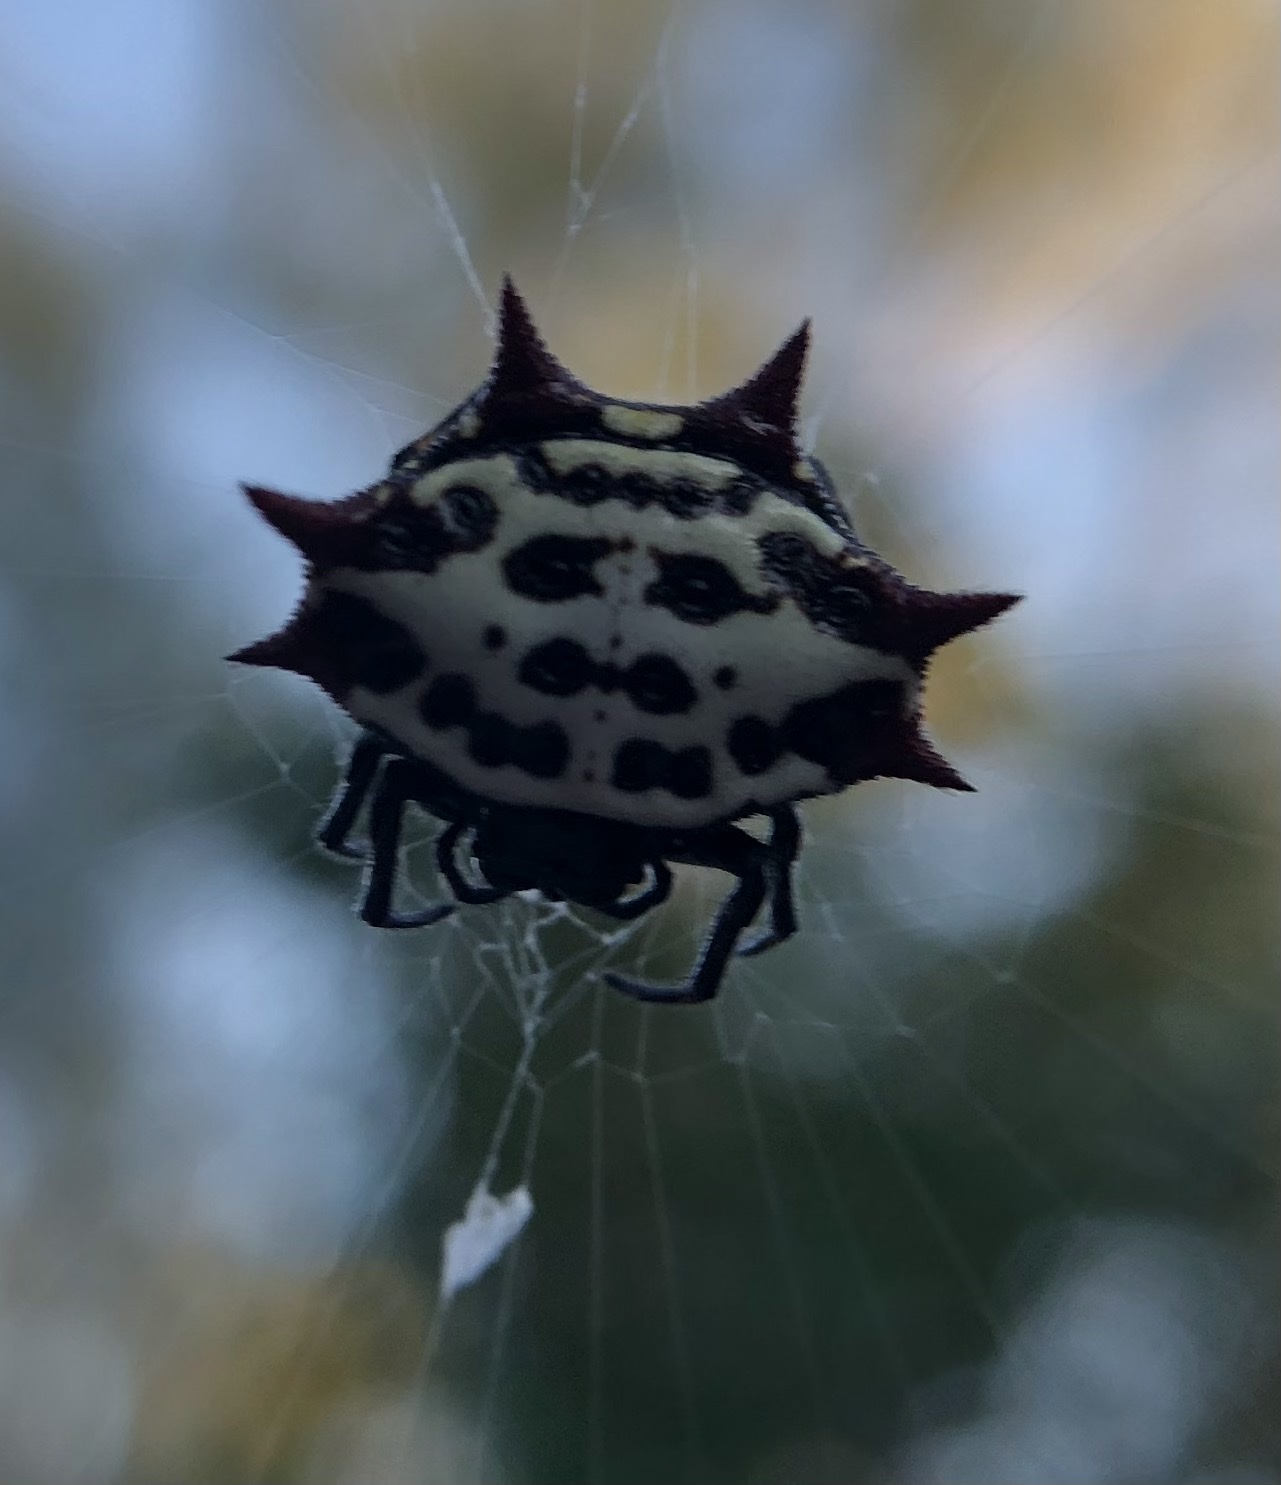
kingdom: Animalia
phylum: Arthropoda
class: Arachnida
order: Araneae
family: Araneidae
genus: Gasteracantha
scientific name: Gasteracantha cancriformis
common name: Orb weavers
